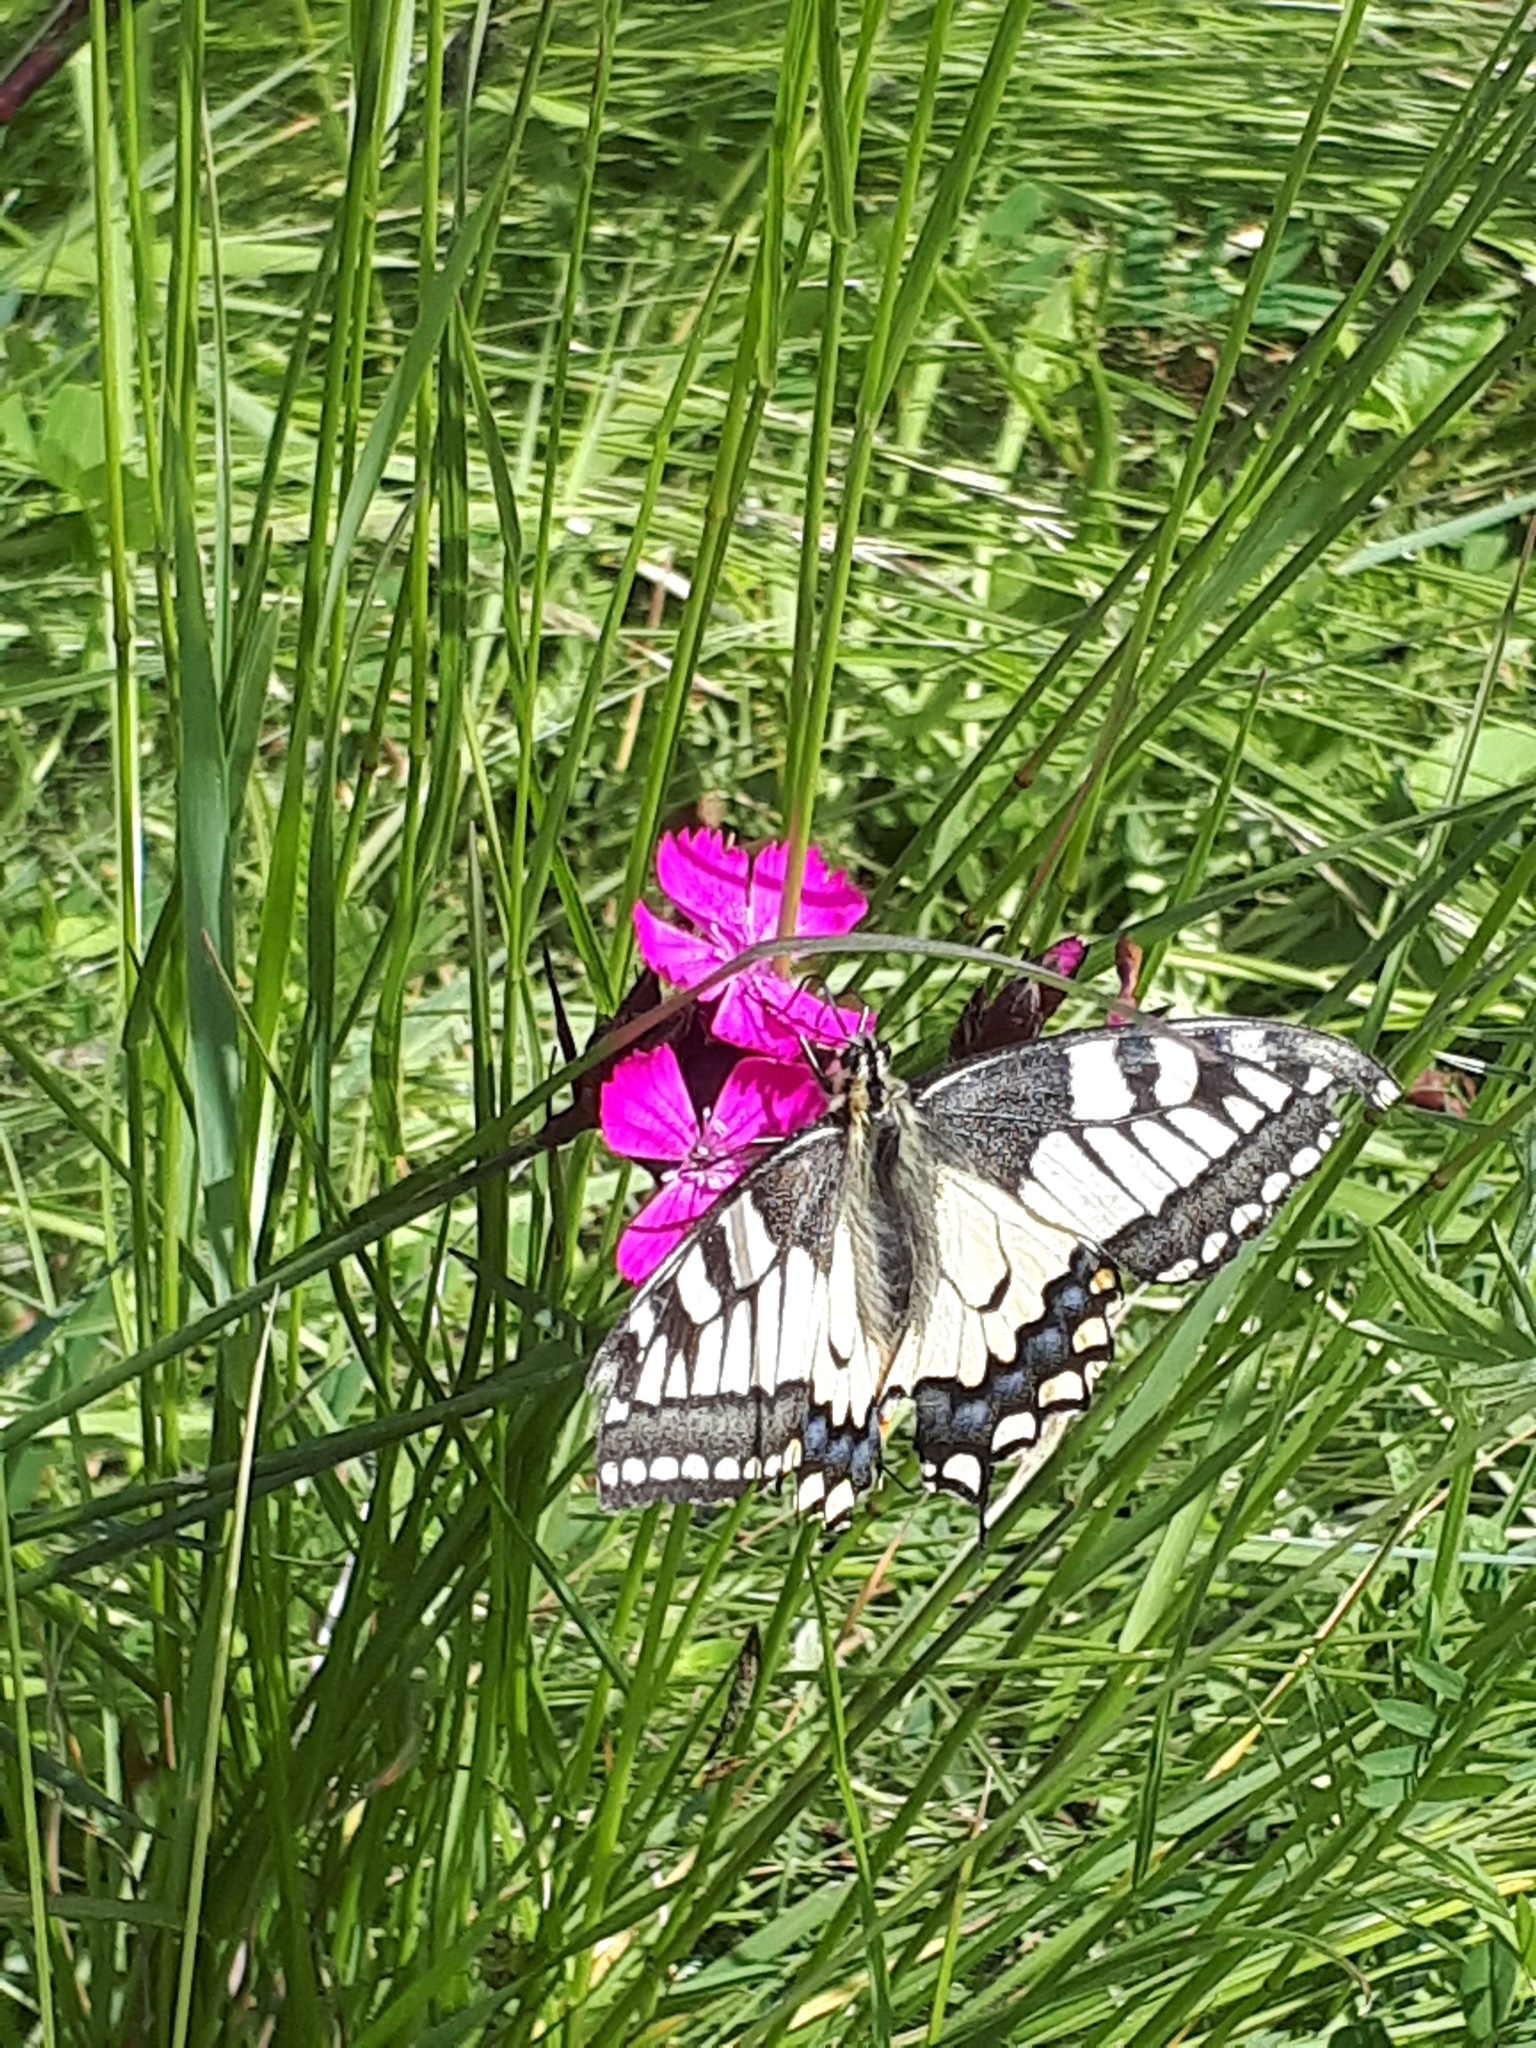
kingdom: Animalia
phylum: Arthropoda
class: Insecta
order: Lepidoptera
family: Papilionidae
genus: Papilio
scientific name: Papilio machaon
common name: Swallowtail
